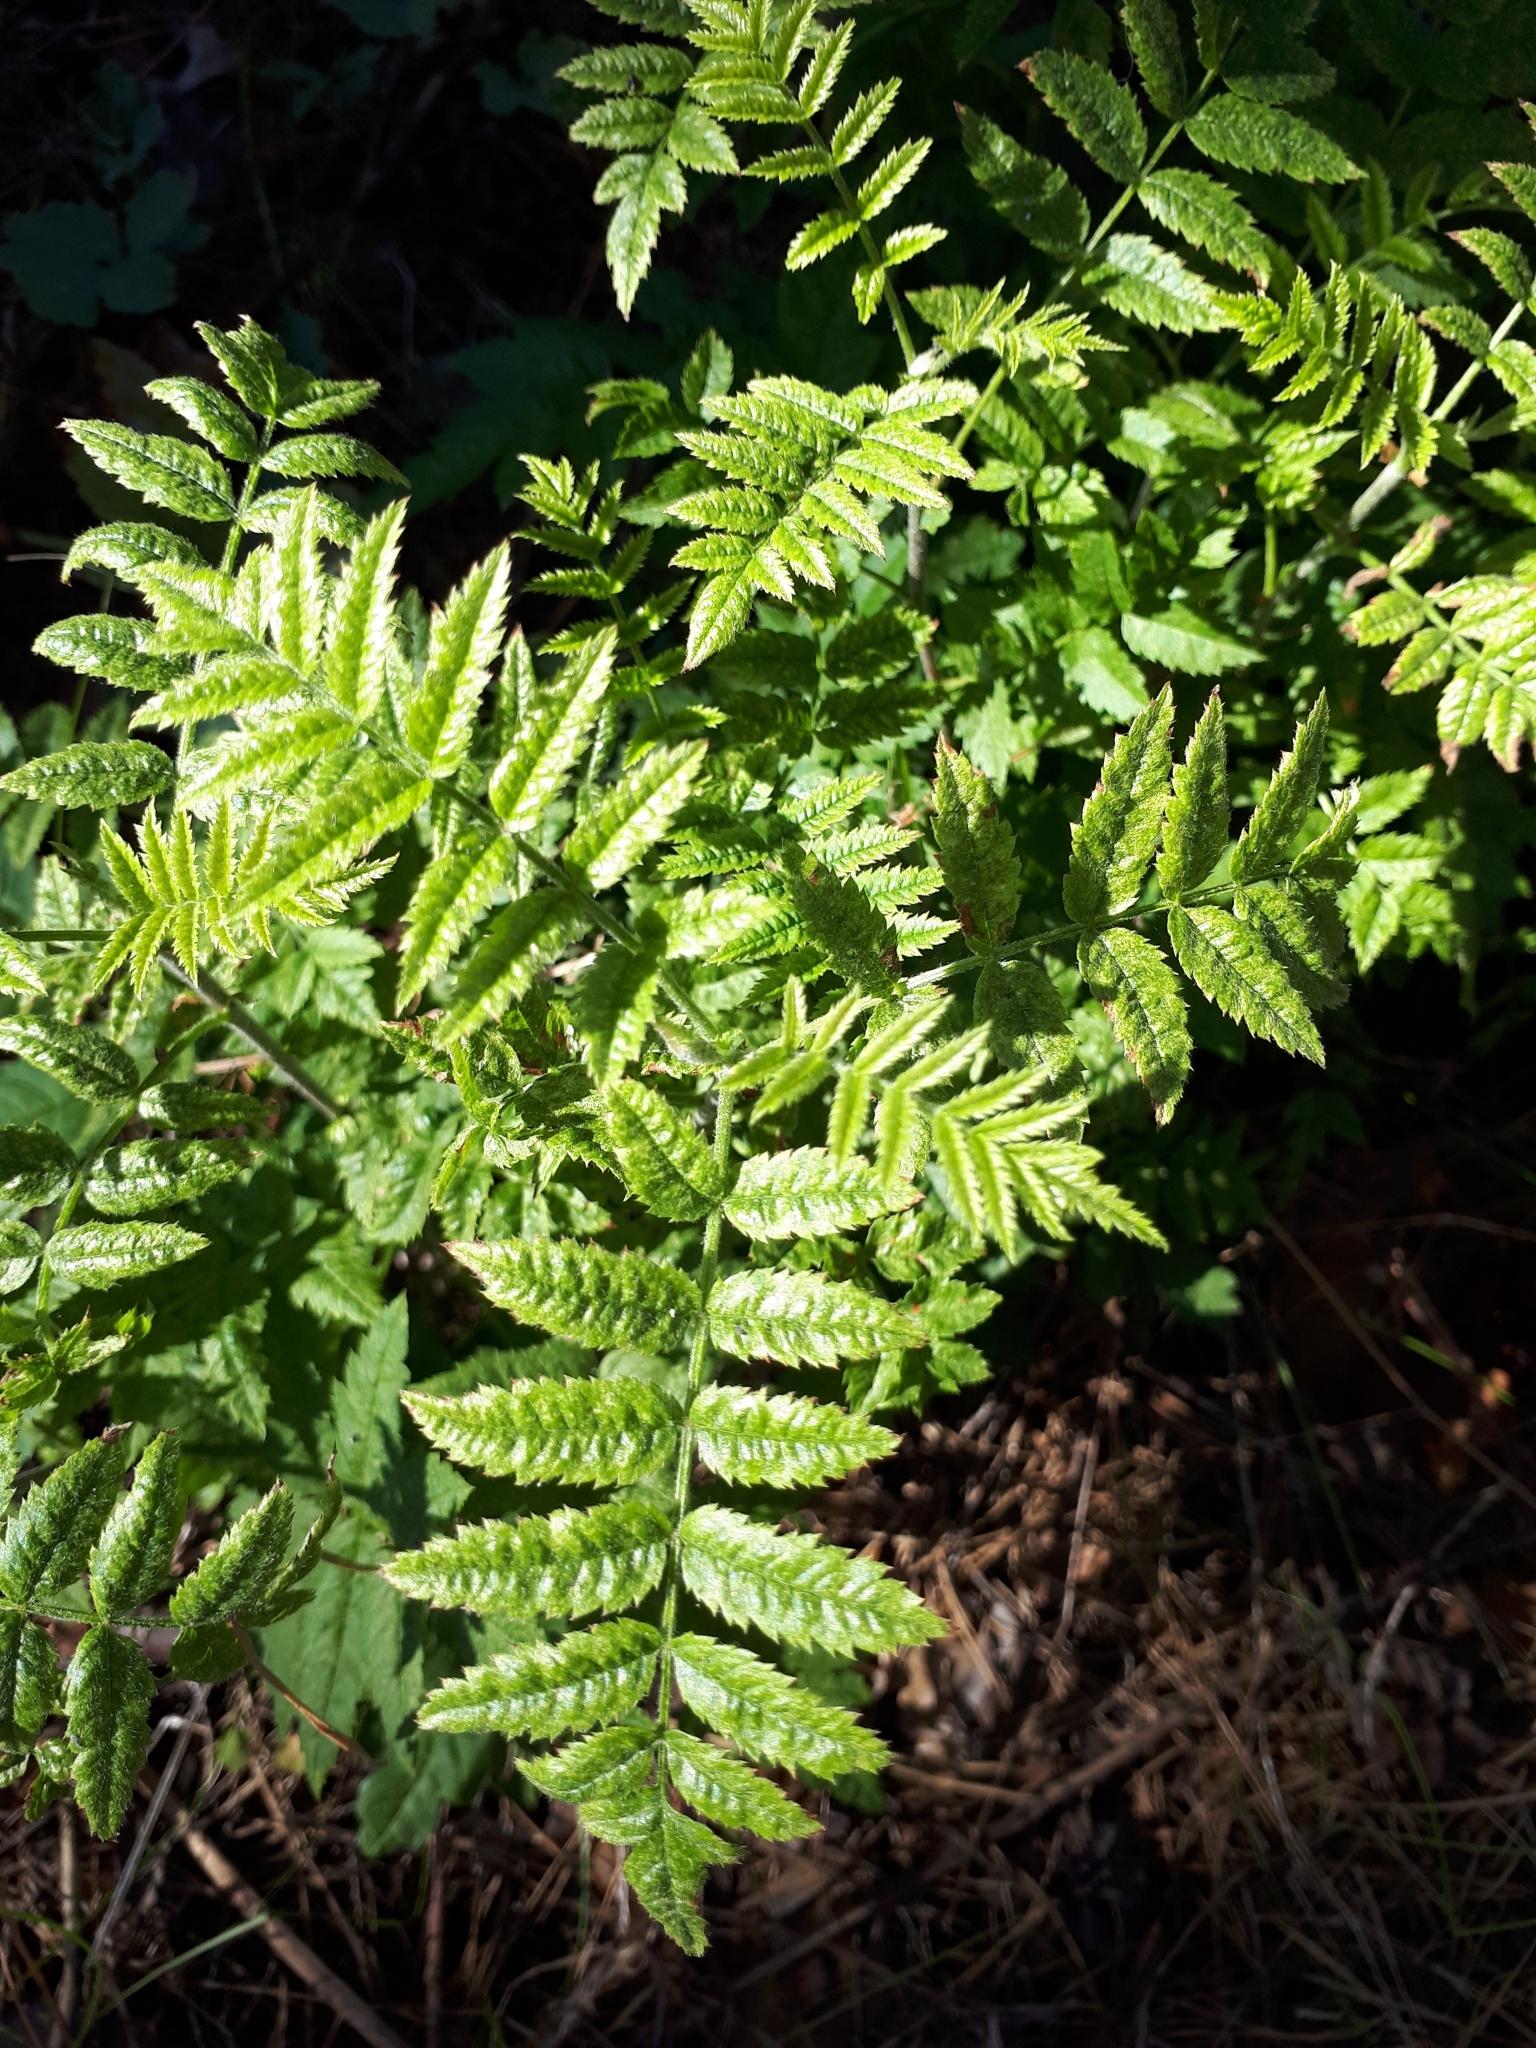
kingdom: Plantae
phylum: Tracheophyta
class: Magnoliopsida
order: Rosales
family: Rosaceae
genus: Sorbus
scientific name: Sorbus aucuparia
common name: Rowan
